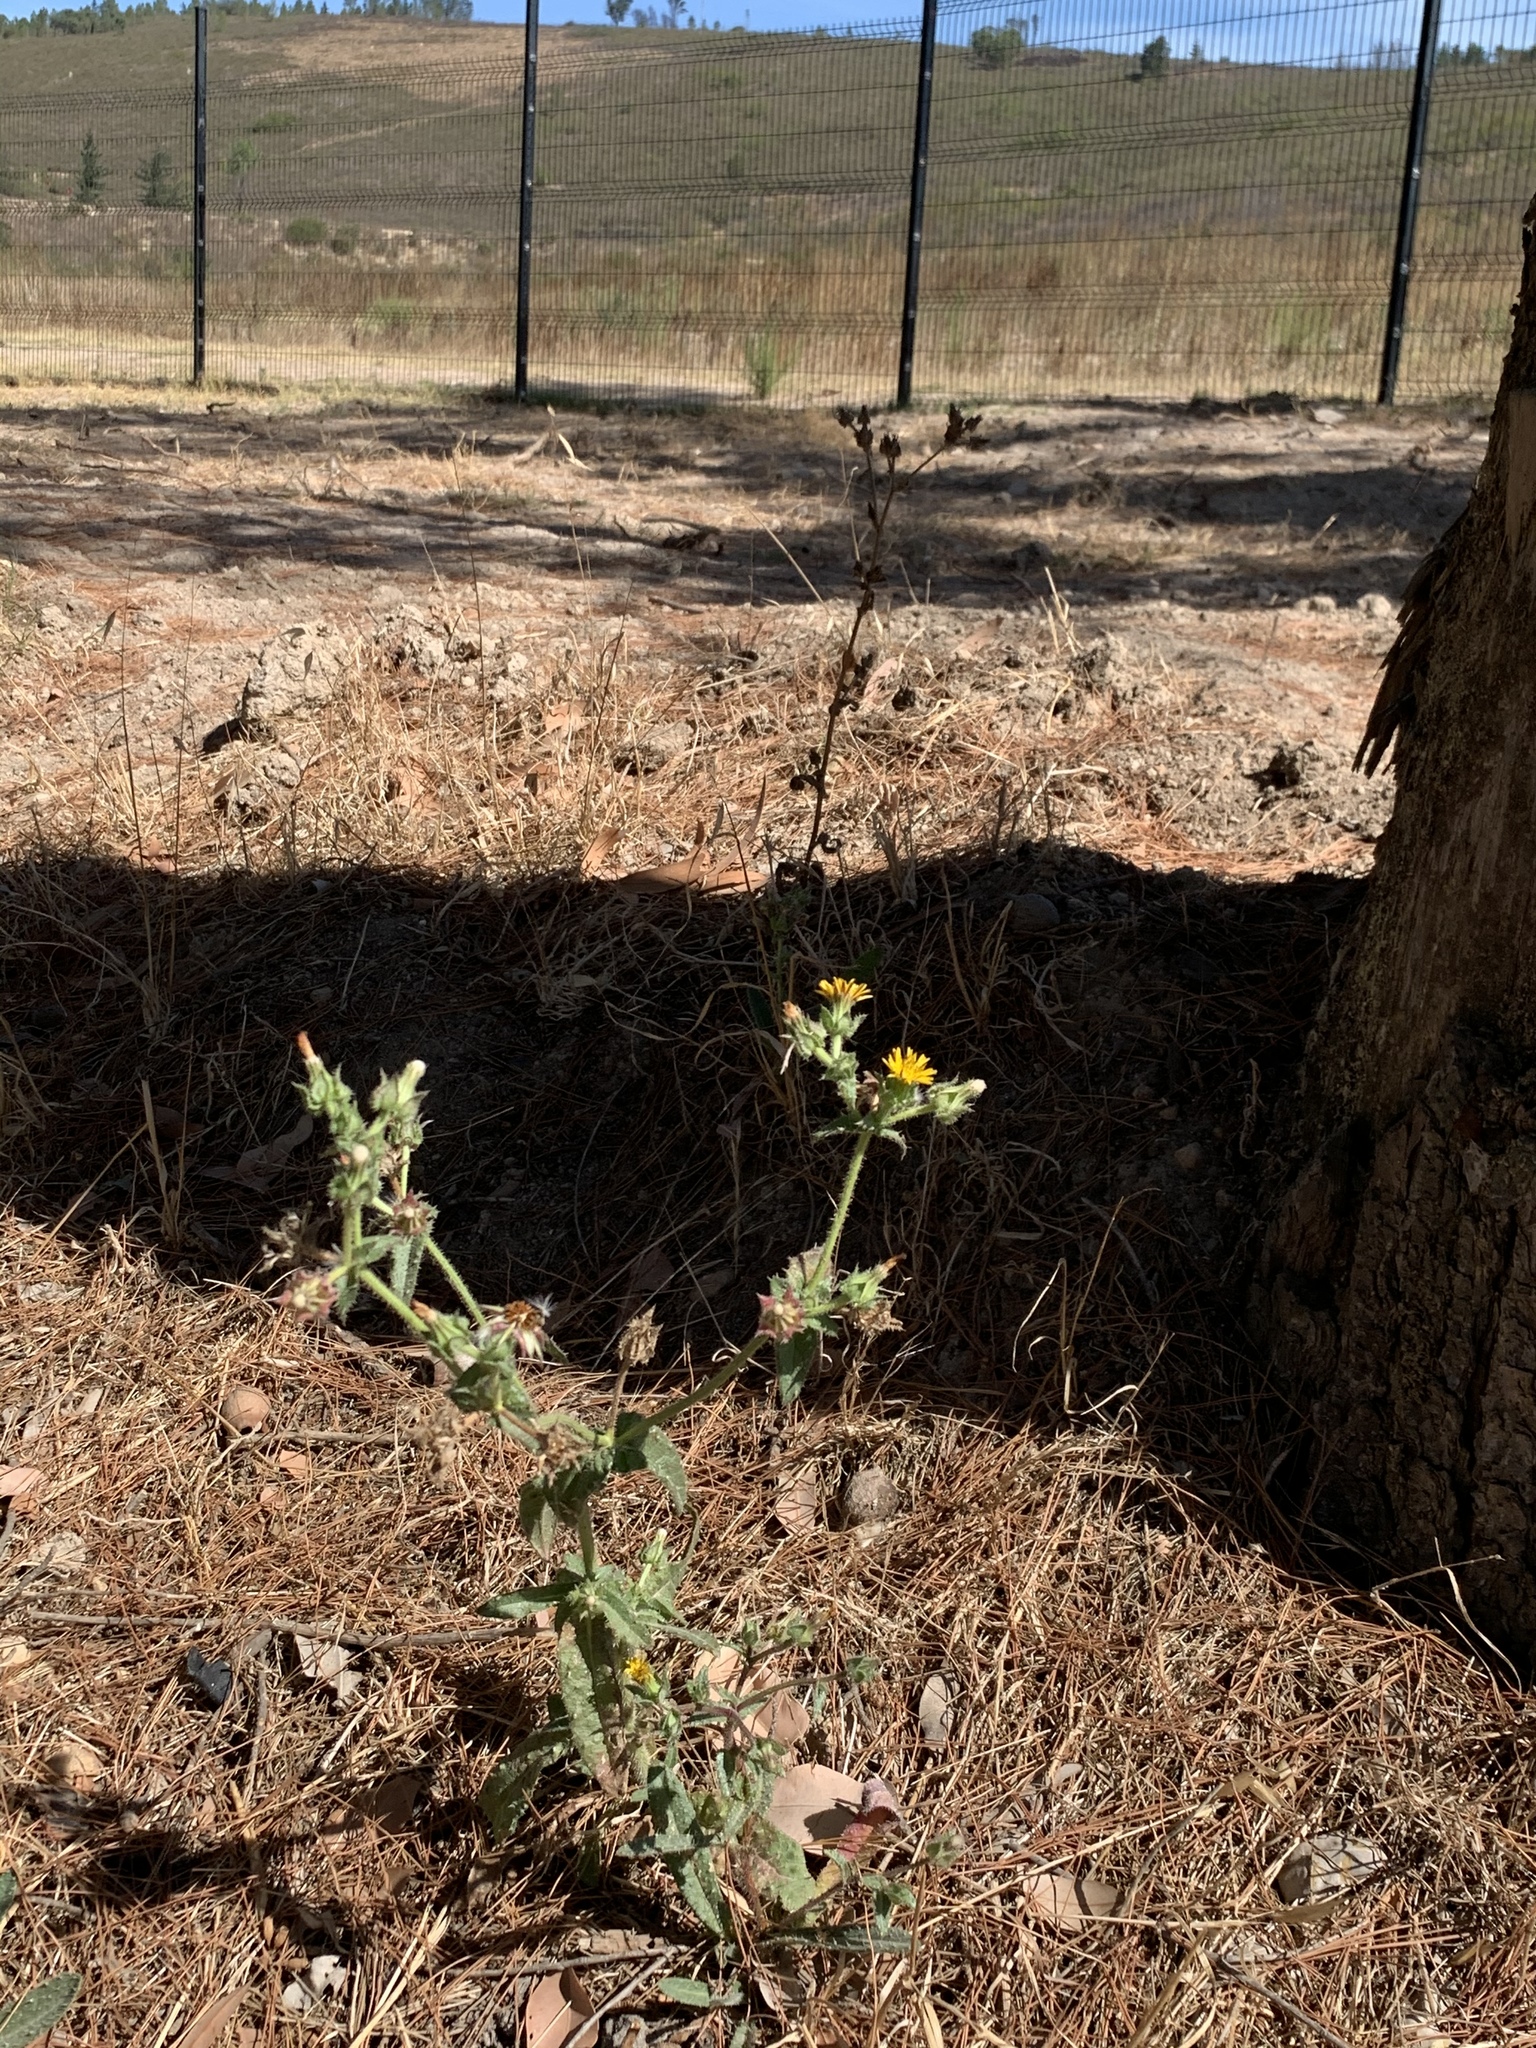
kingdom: Plantae
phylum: Tracheophyta
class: Magnoliopsida
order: Asterales
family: Asteraceae
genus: Helminthotheca
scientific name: Helminthotheca echioides
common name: Ox-tongue
